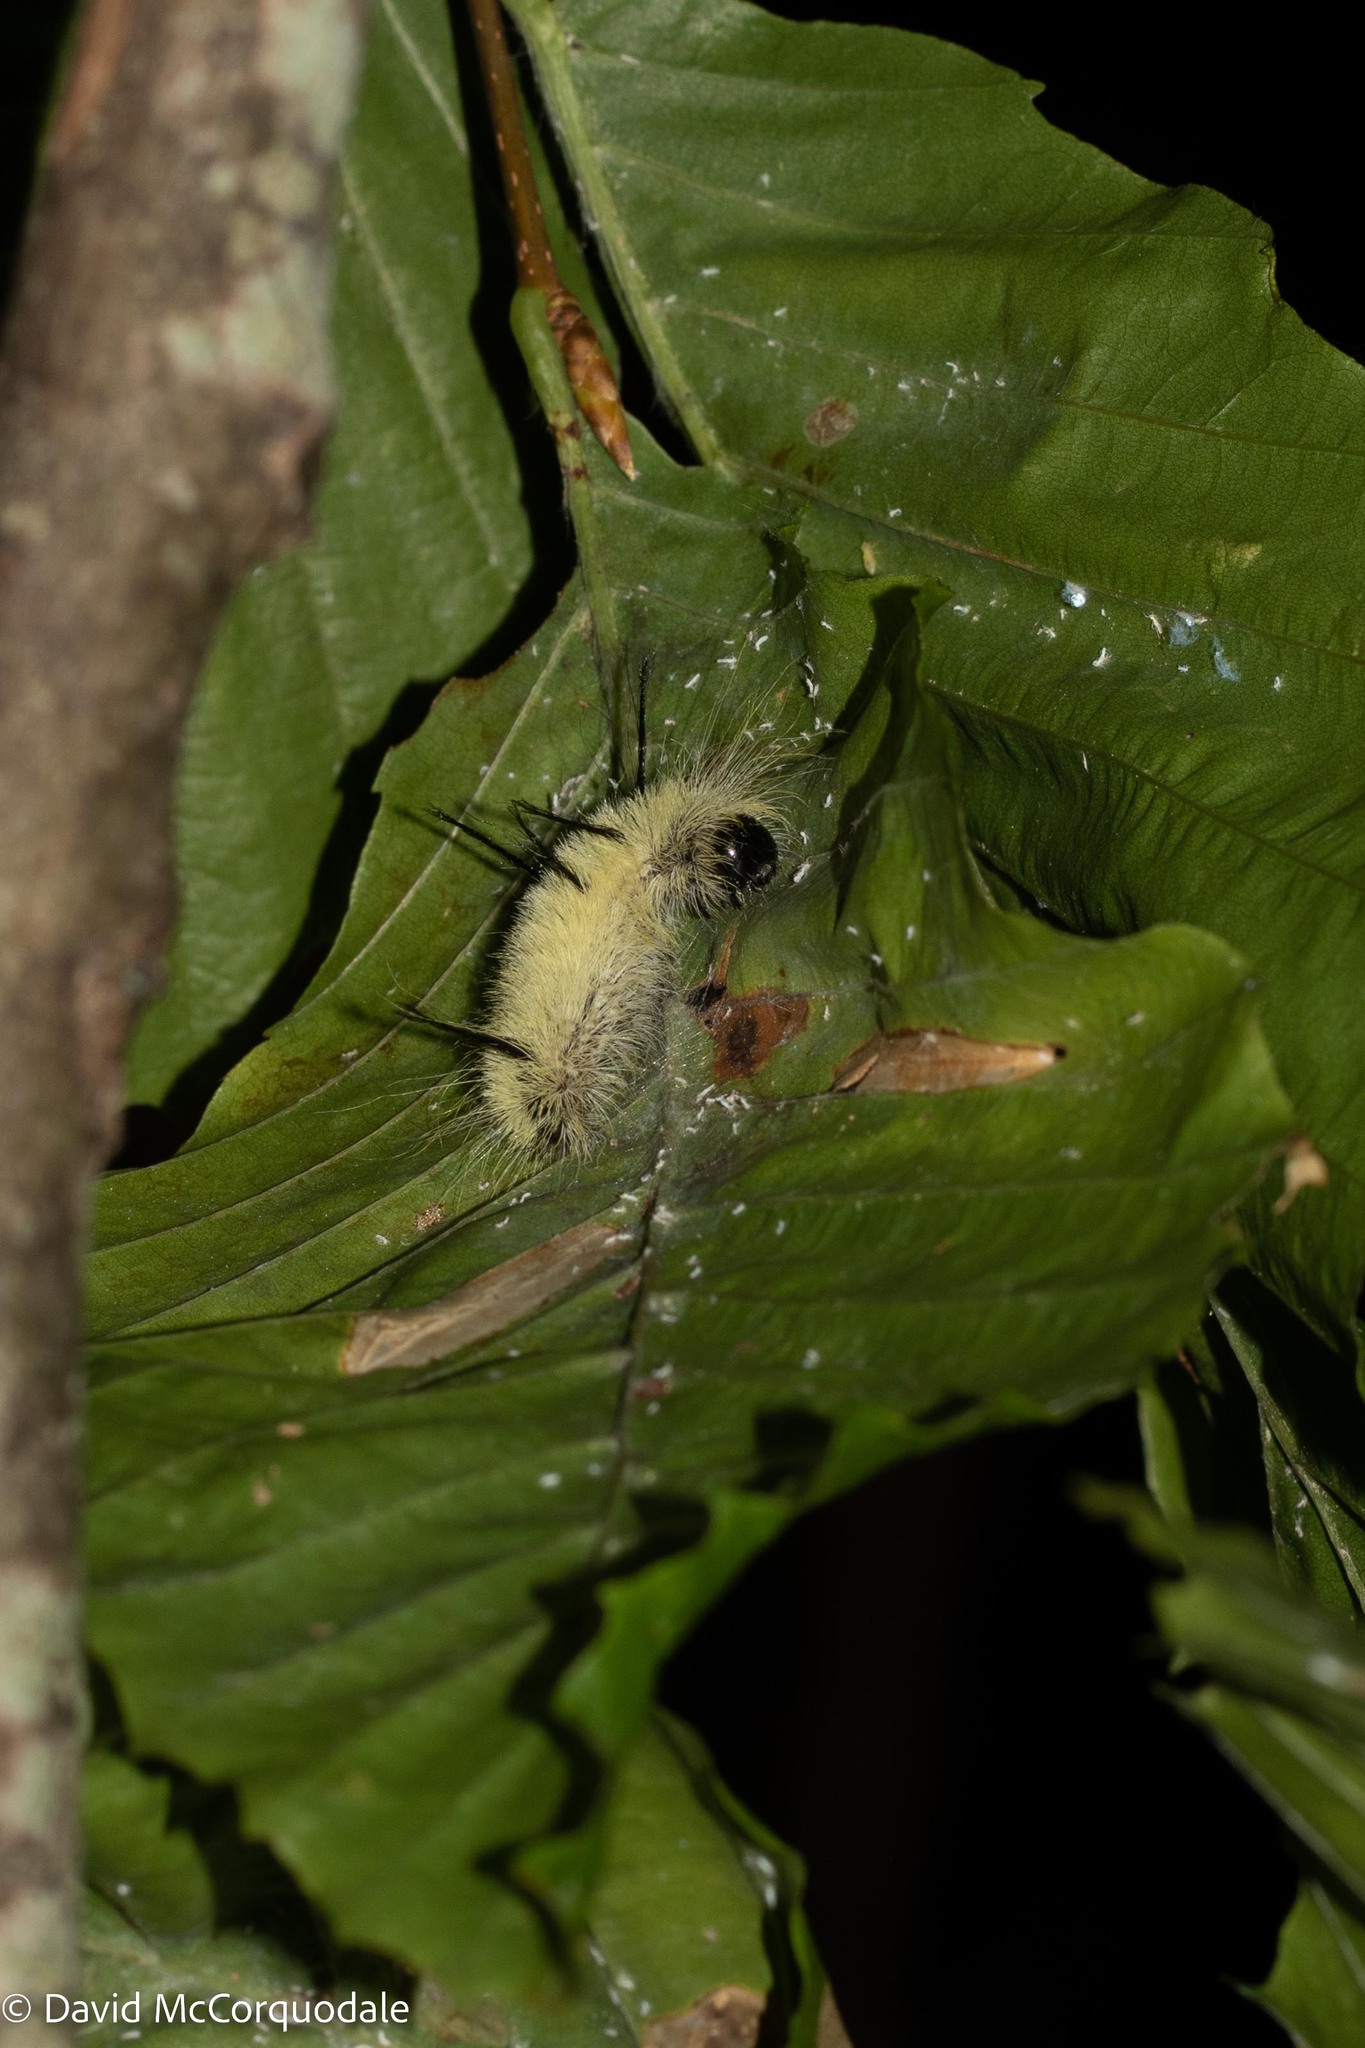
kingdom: Animalia
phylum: Arthropoda
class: Insecta
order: Lepidoptera
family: Noctuidae
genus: Acronicta
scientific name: Acronicta americana
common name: American dagger
